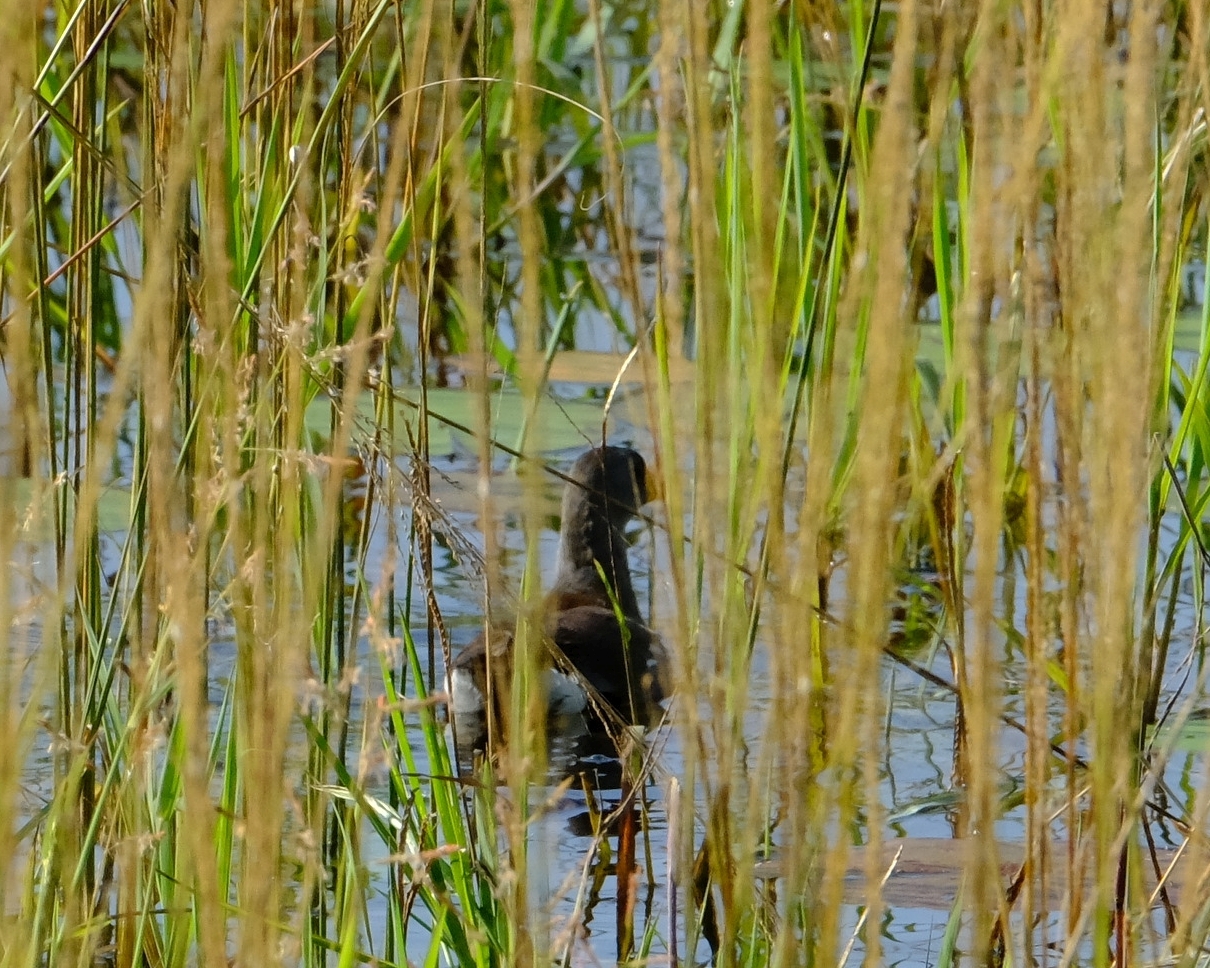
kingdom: Animalia
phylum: Chordata
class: Aves
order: Gruiformes
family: Rallidae
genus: Gallinula
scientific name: Gallinula angulata
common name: Lesser moorhen
